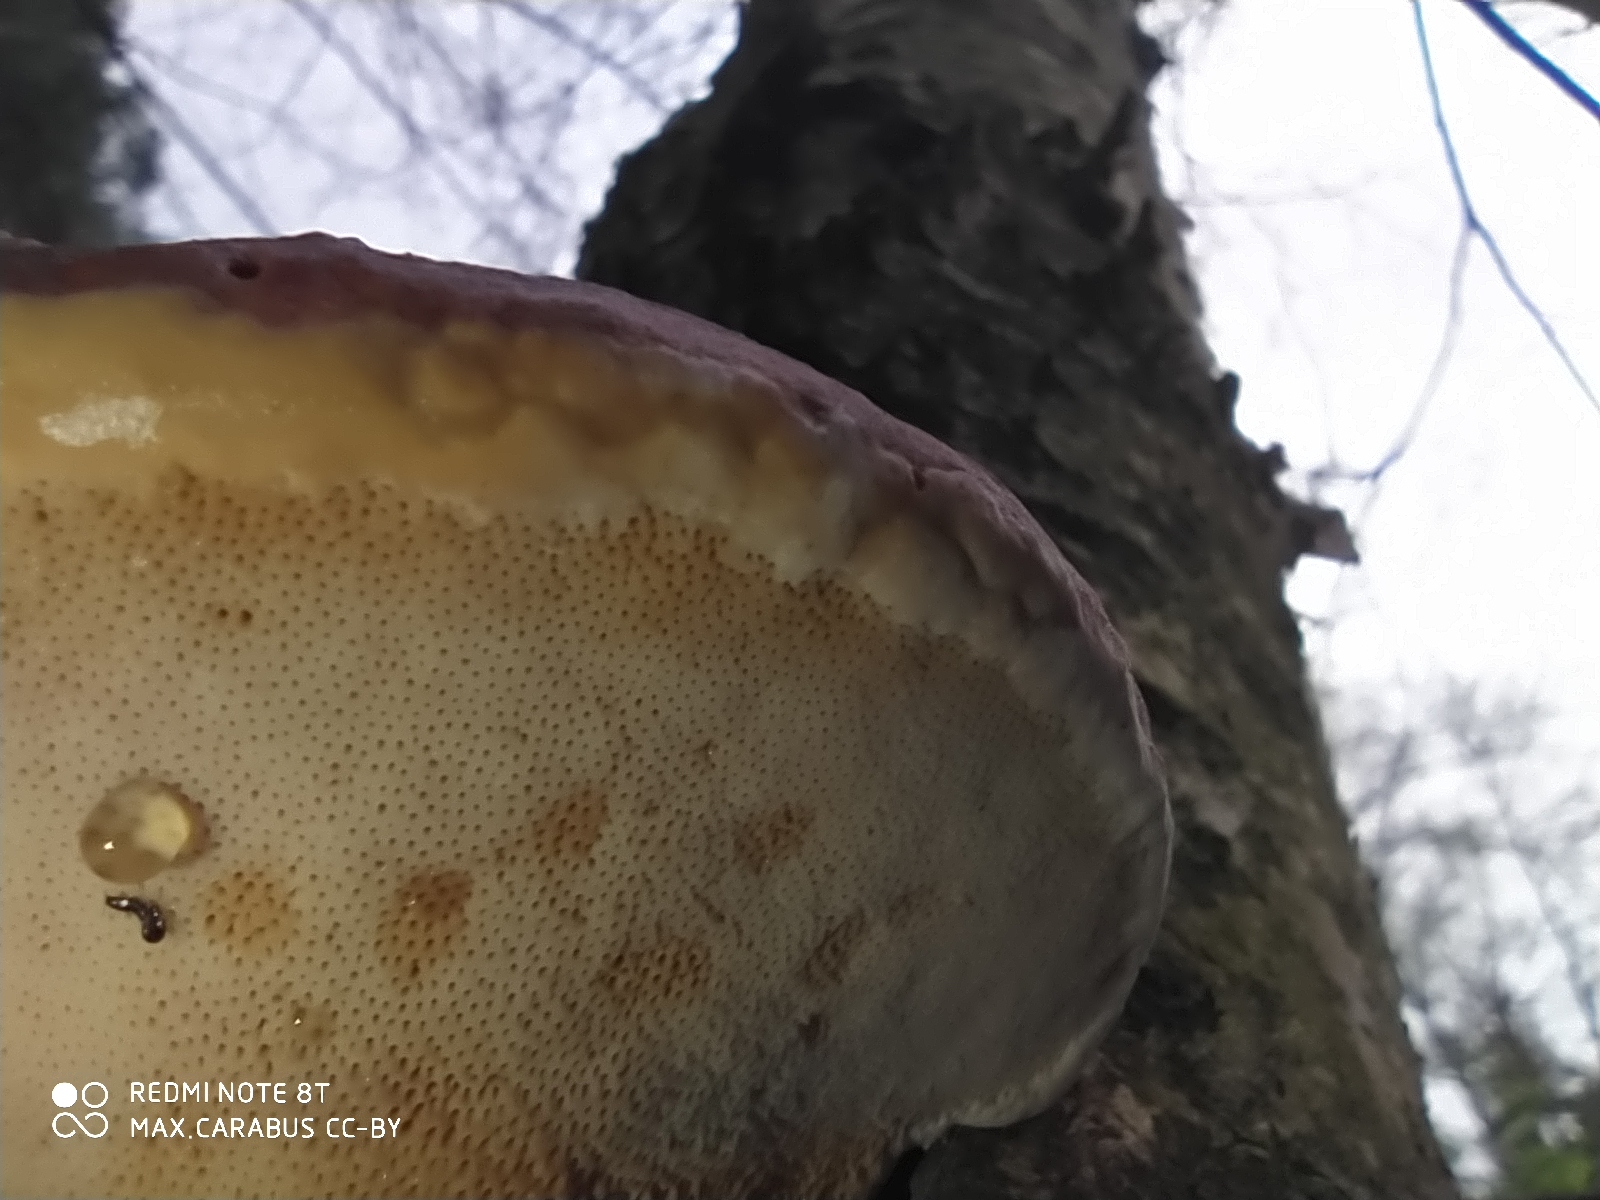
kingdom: Fungi
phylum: Basidiomycota
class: Agaricomycetes
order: Polyporales
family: Fomitopsidaceae
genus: Fomitopsis
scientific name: Fomitopsis pinicola
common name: Red-belted bracket
